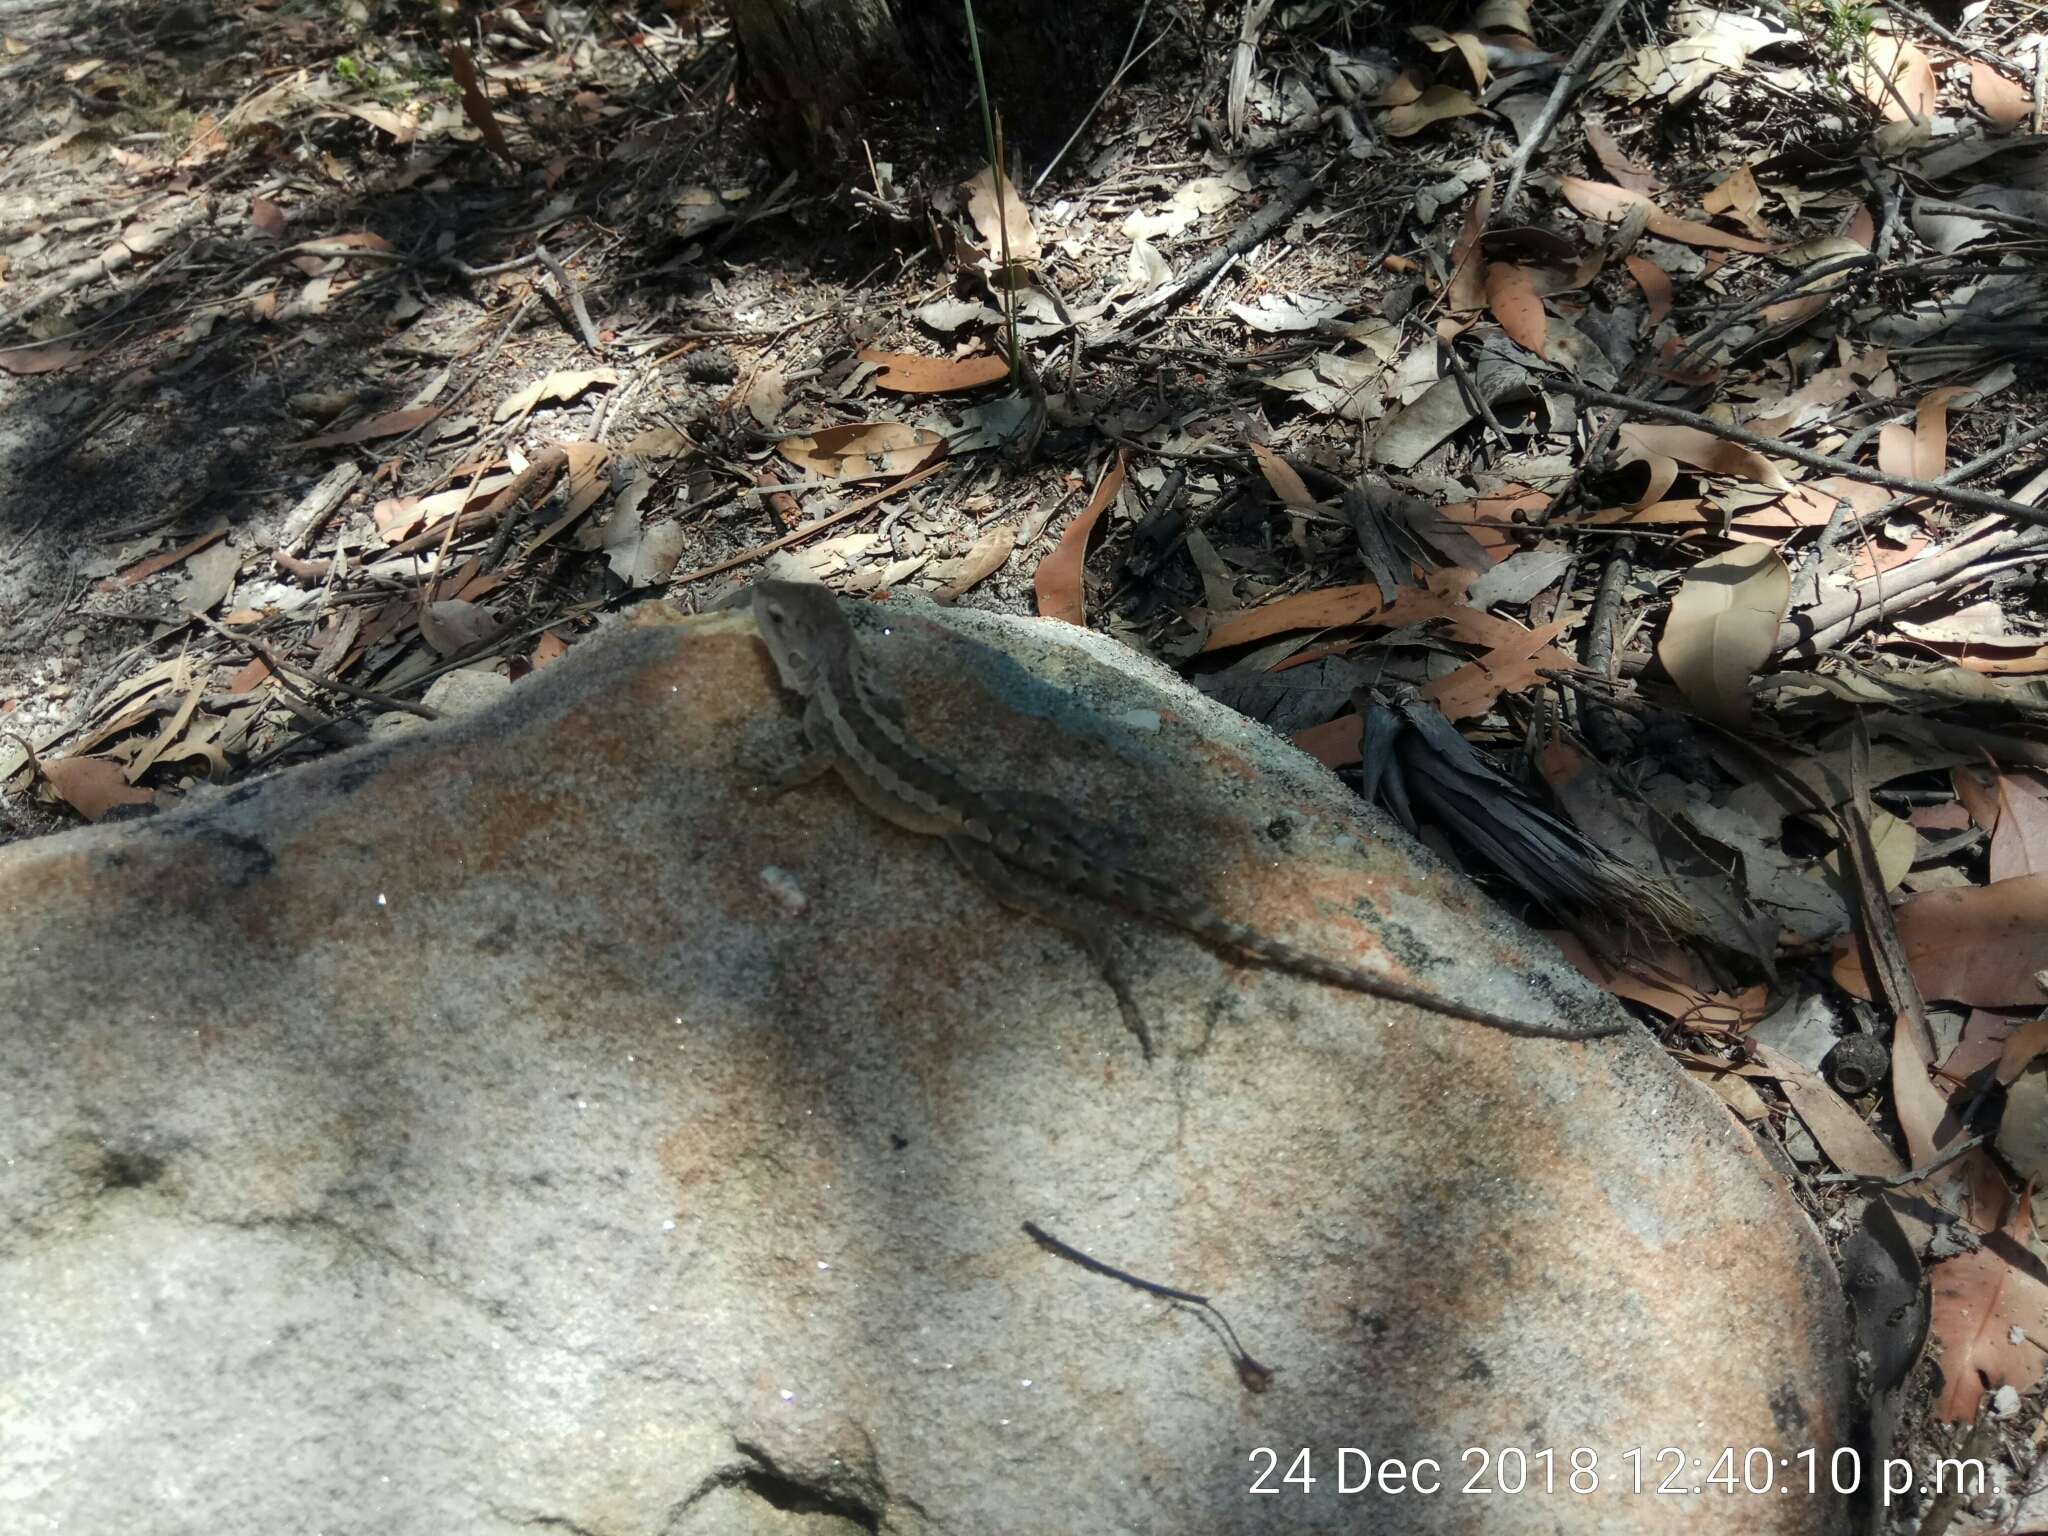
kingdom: Animalia
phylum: Chordata
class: Squamata
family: Agamidae
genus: Amphibolurus
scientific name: Amphibolurus muricatus
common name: Jacky lizard
